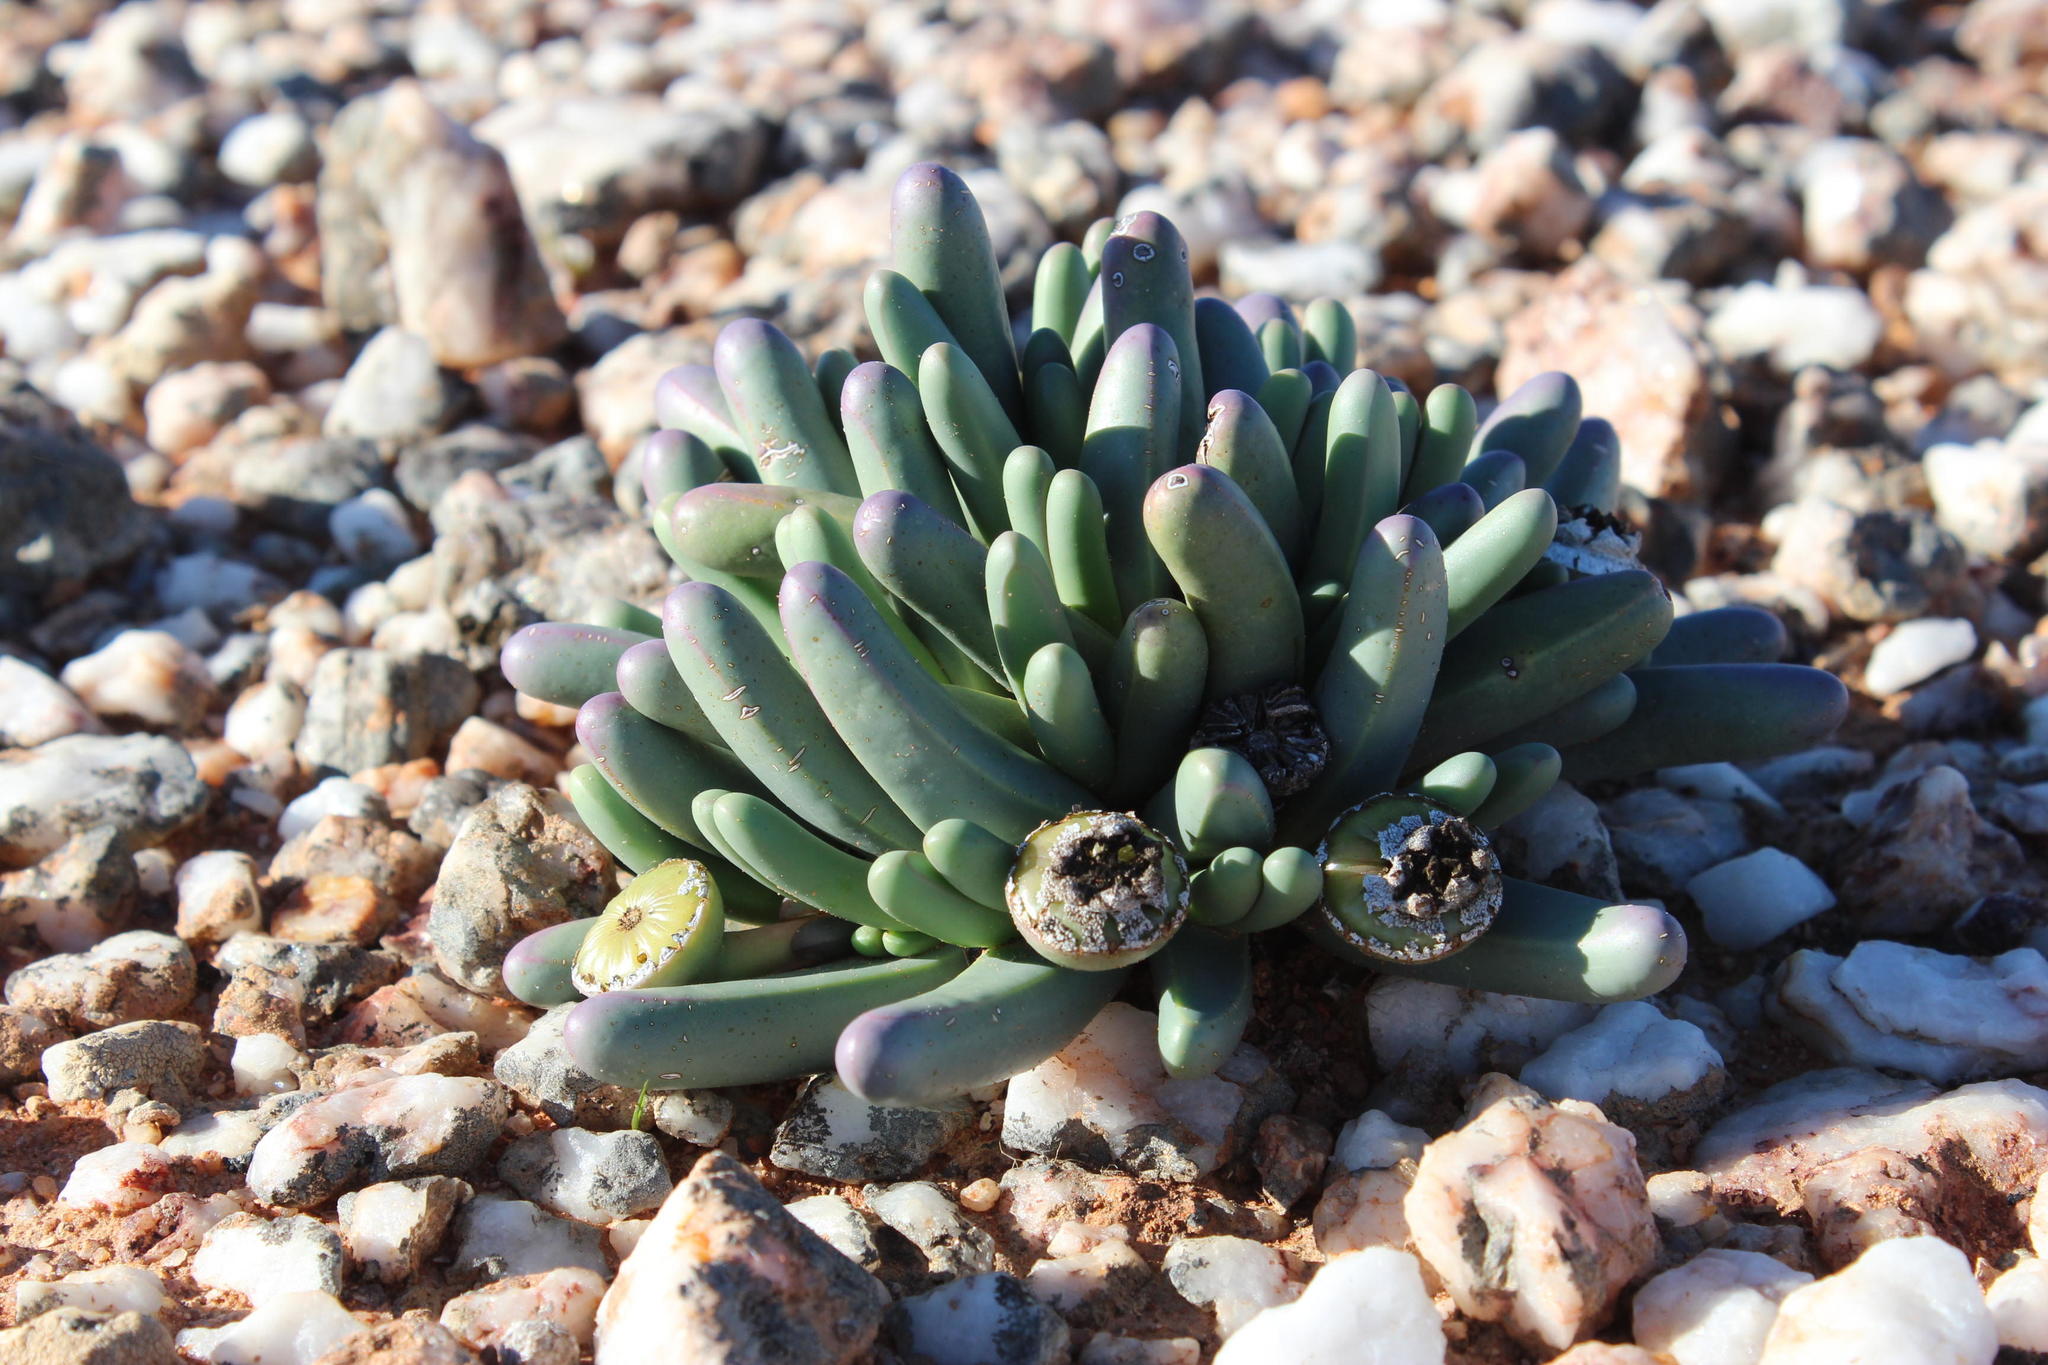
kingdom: Plantae
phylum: Tracheophyta
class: Magnoliopsida
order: Caryophyllales
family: Aizoaceae
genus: Argyroderma
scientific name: Argyroderma fissum
